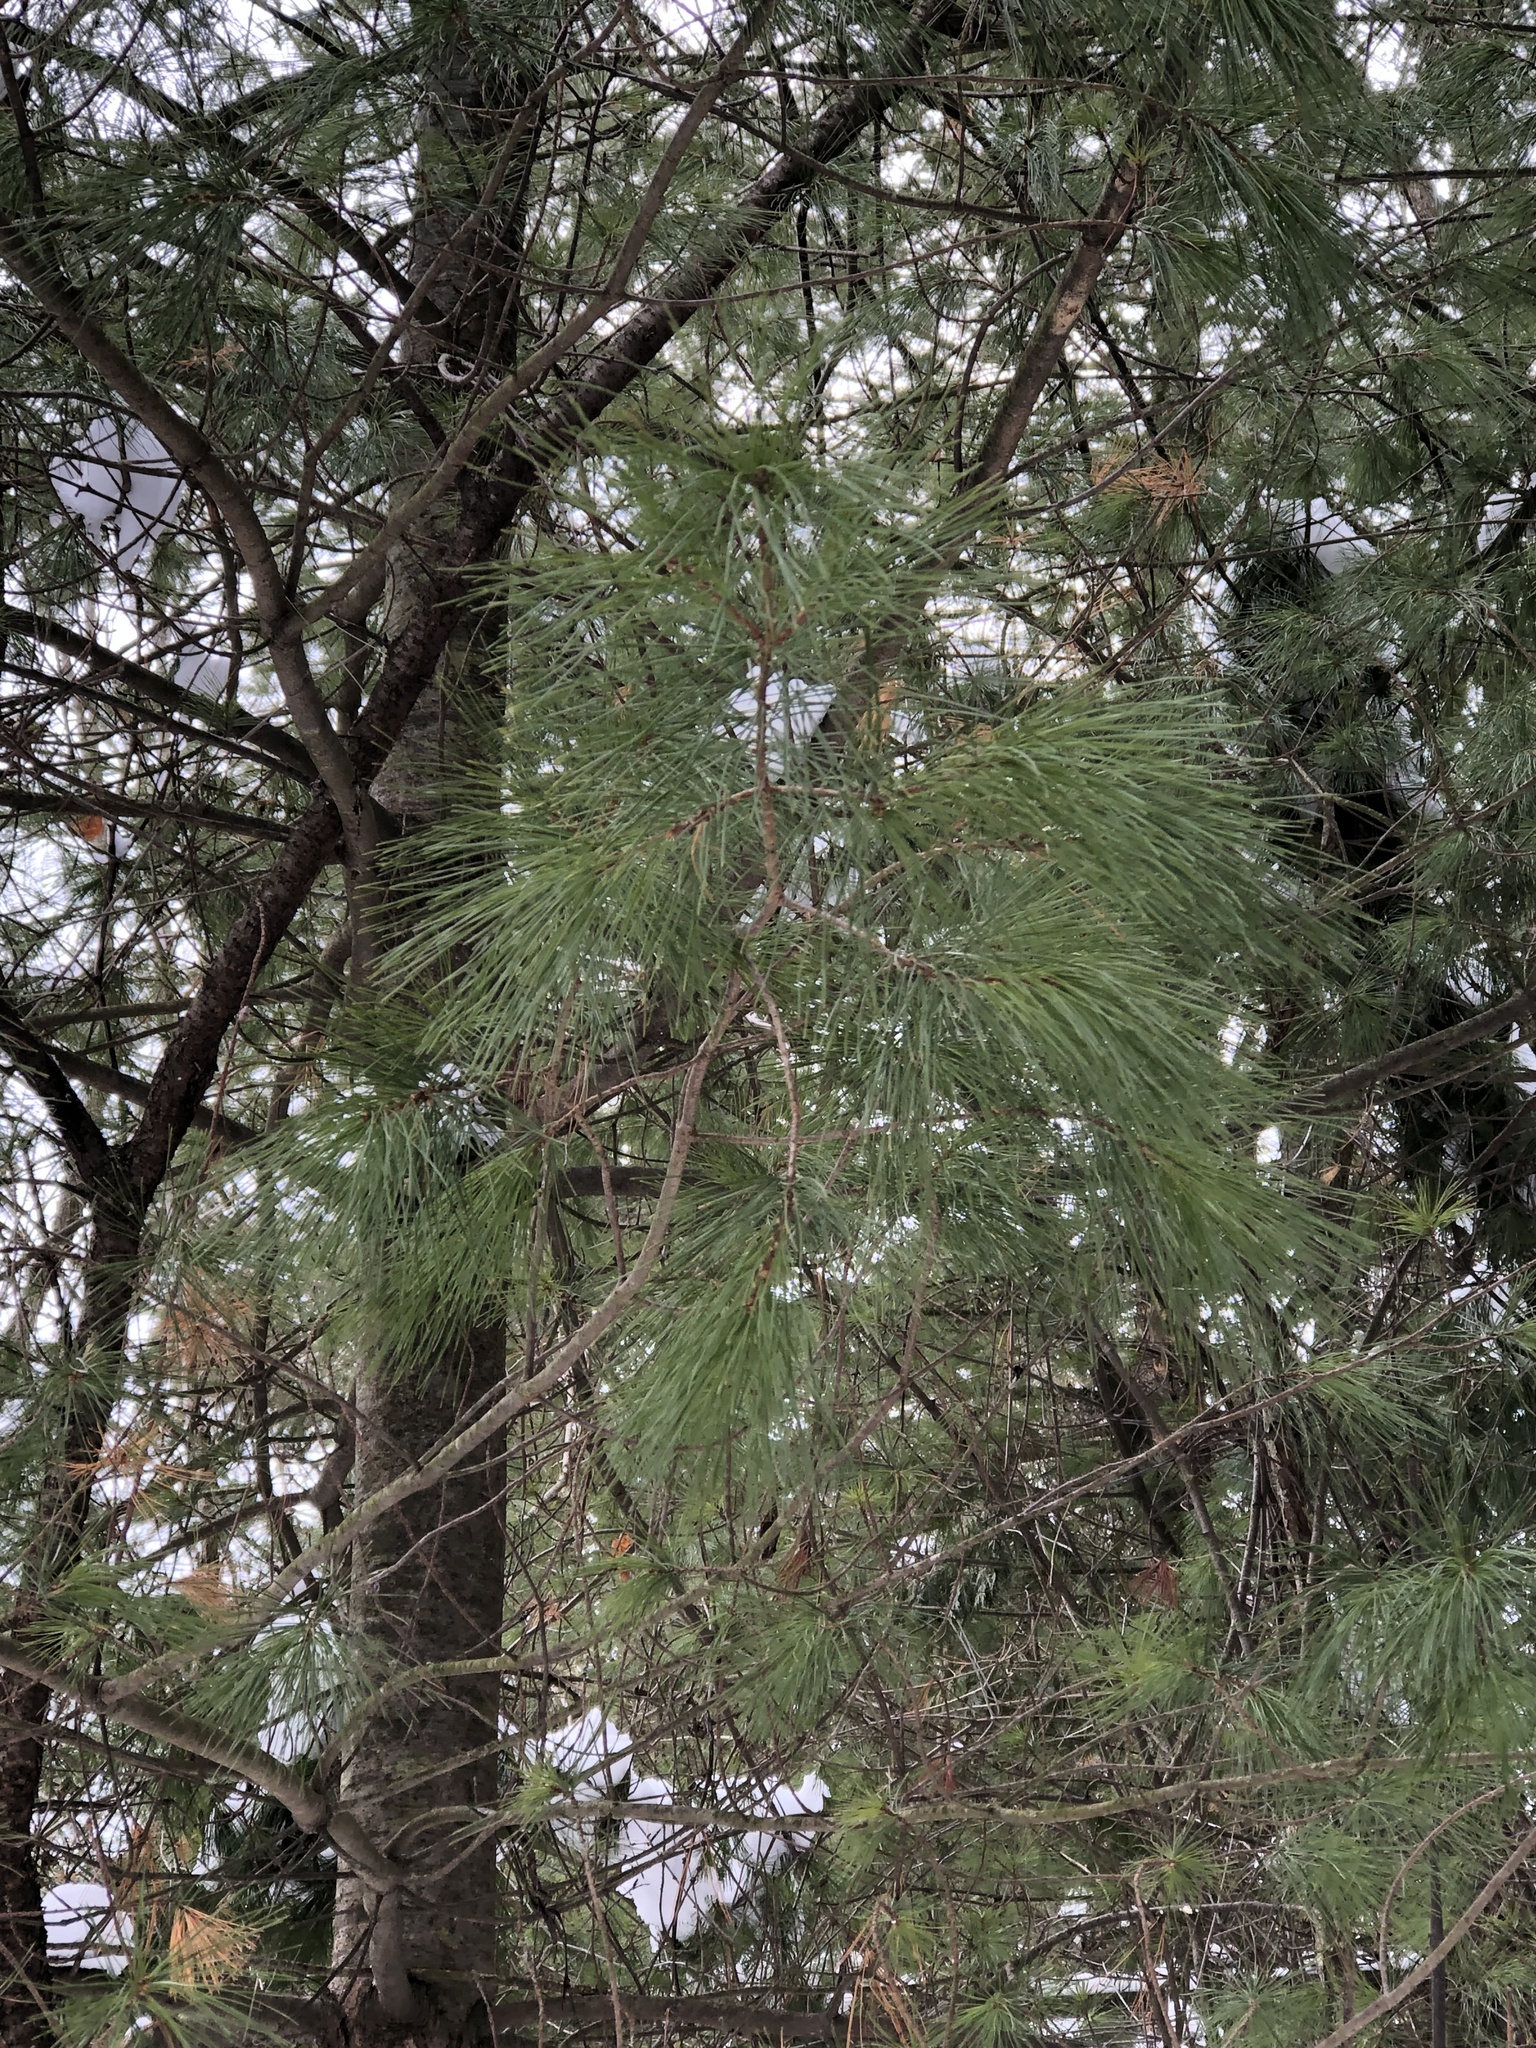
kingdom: Plantae
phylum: Tracheophyta
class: Pinopsida
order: Pinales
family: Pinaceae
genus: Pinus
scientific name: Pinus strobus
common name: Weymouth pine
